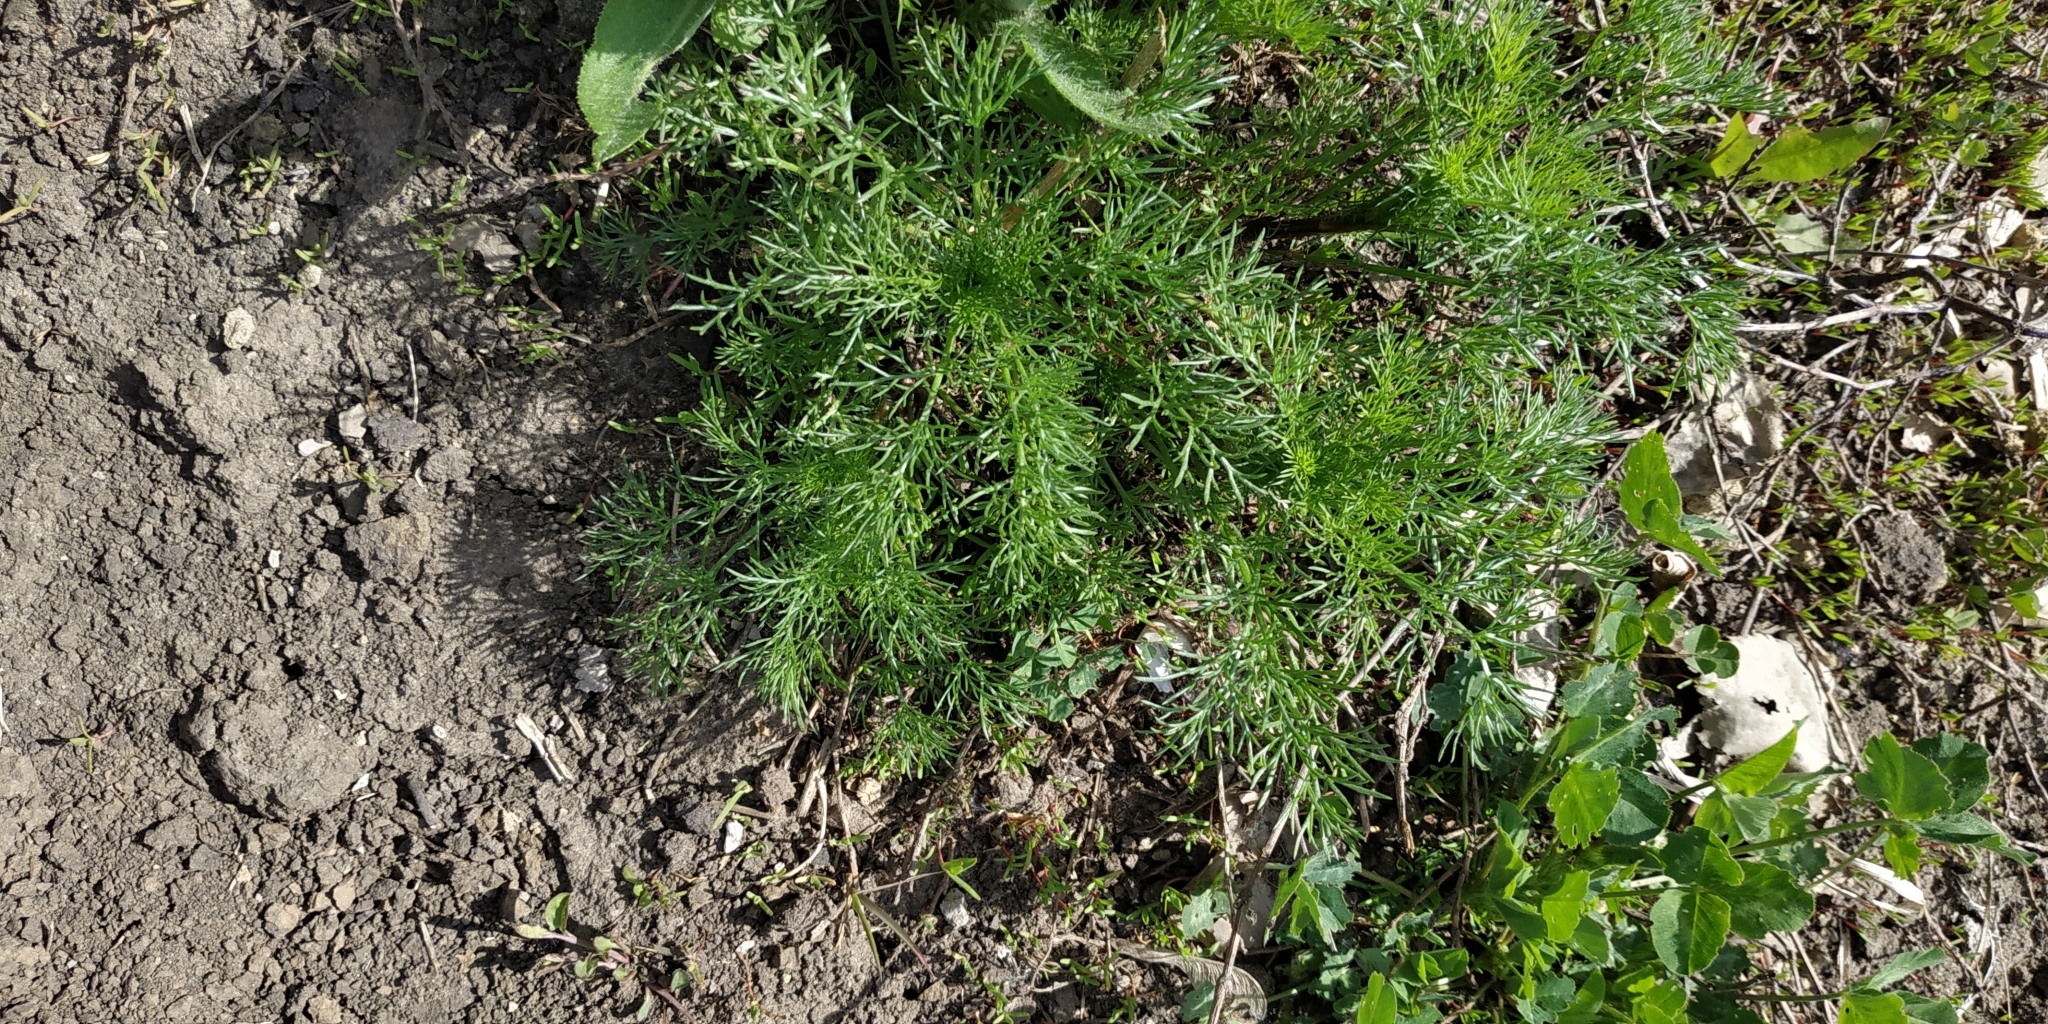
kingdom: Plantae
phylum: Tracheophyta
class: Magnoliopsida
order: Asterales
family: Asteraceae
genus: Tripleurospermum
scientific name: Tripleurospermum inodorum
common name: Scentless mayweed
